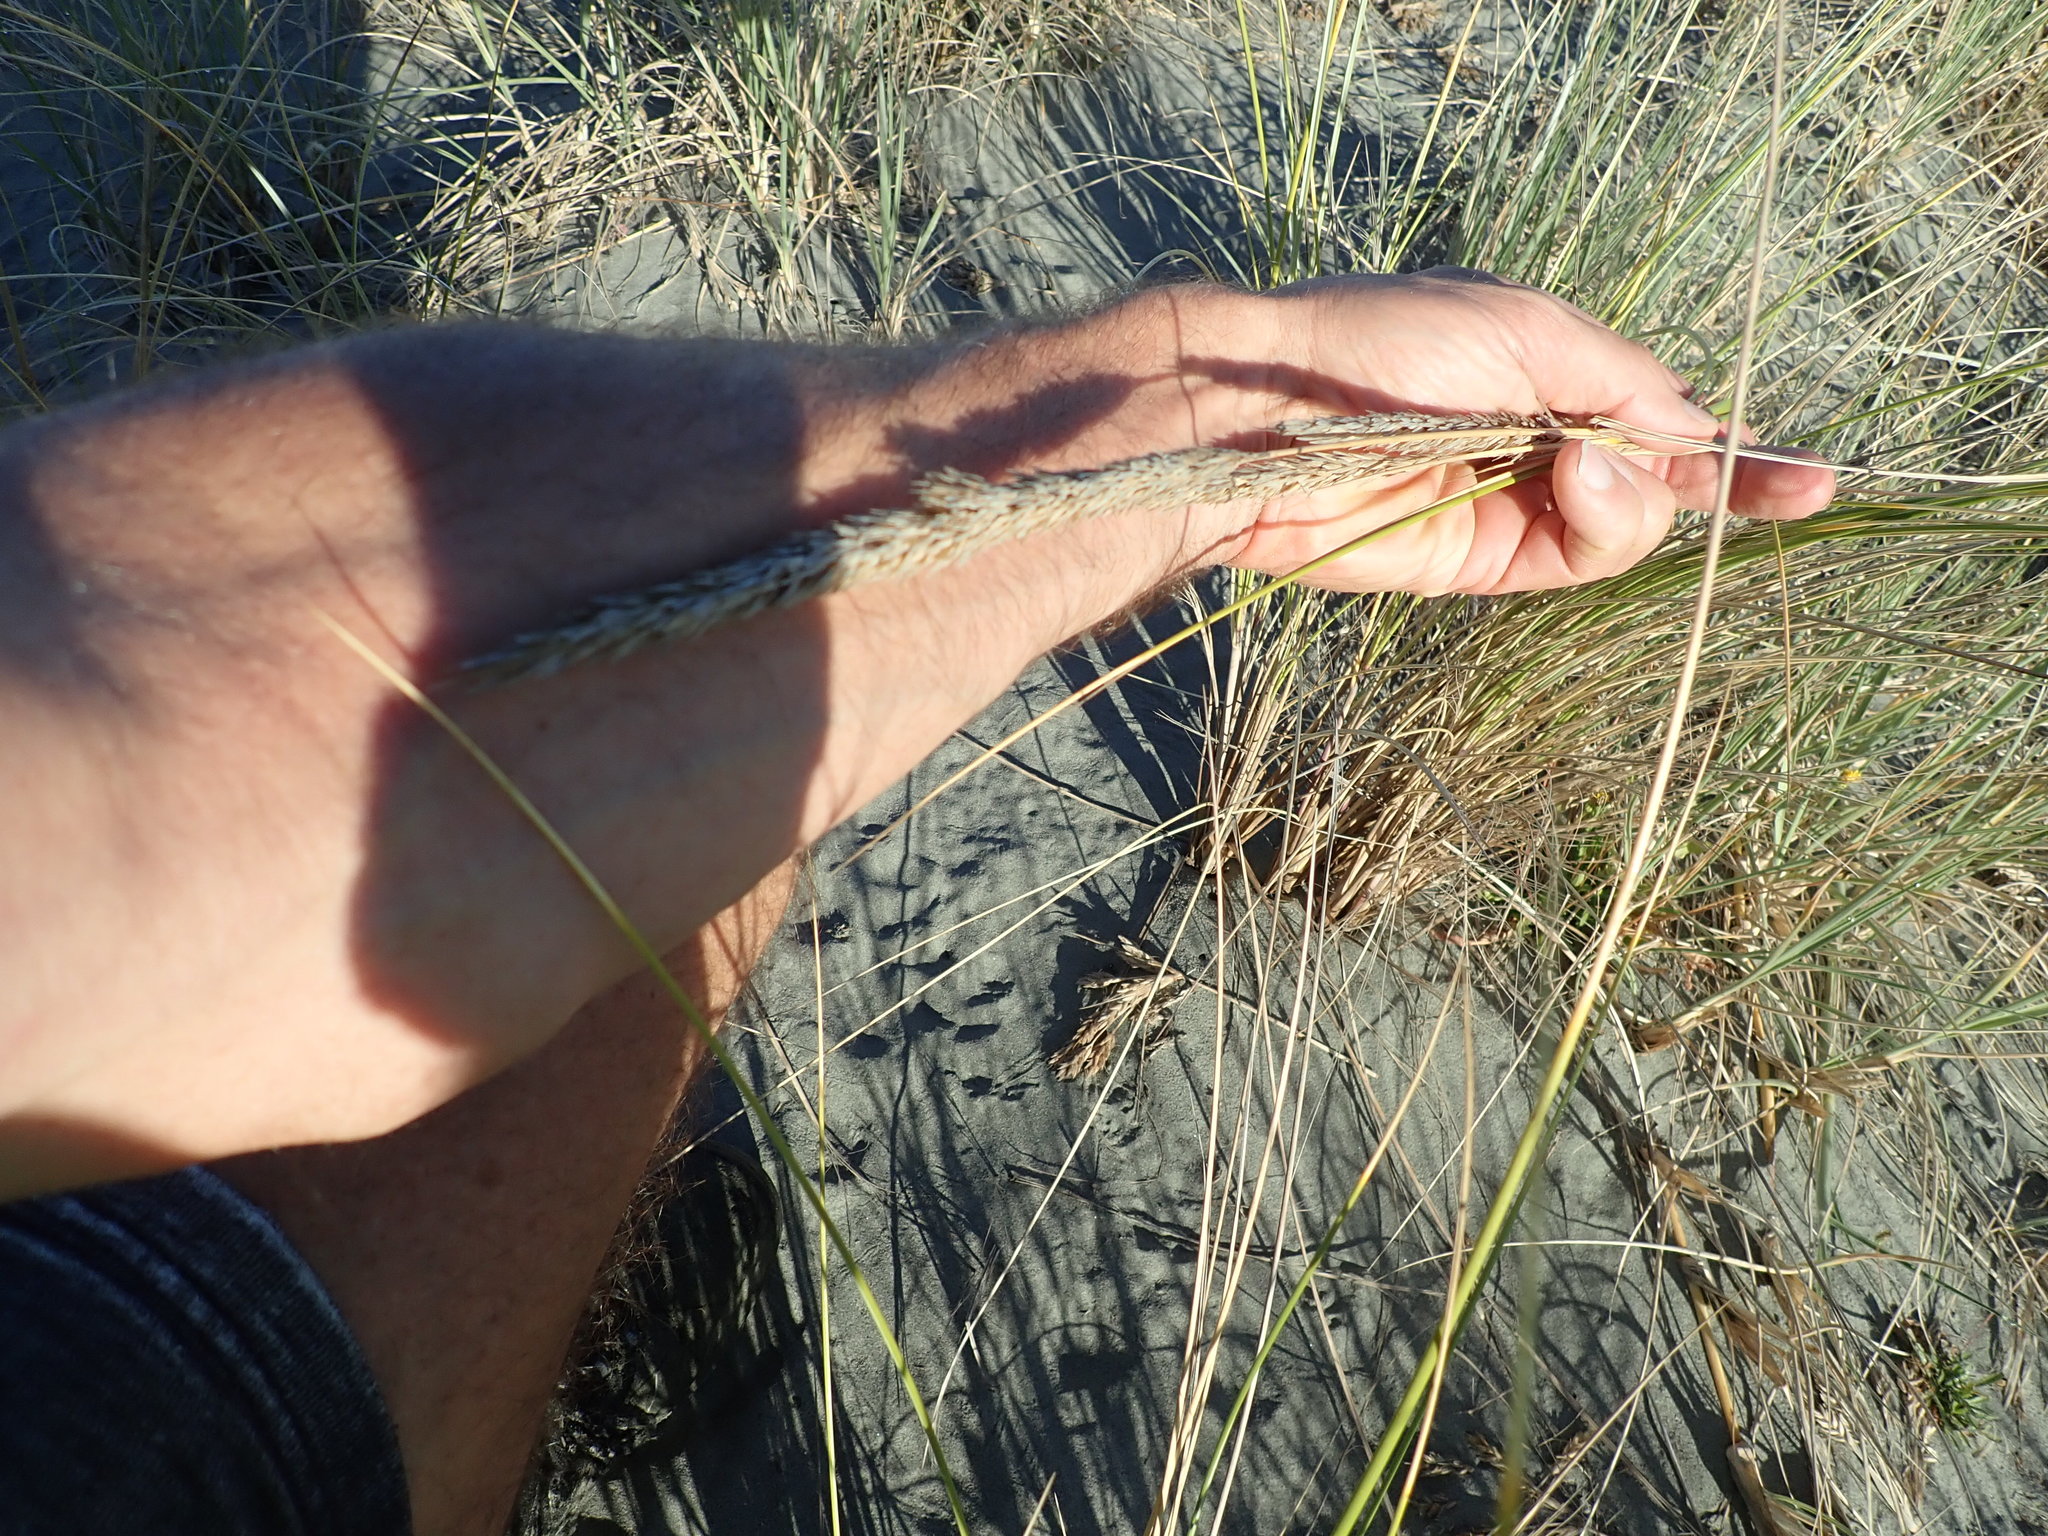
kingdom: Plantae
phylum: Tracheophyta
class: Liliopsida
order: Poales
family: Poaceae
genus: Calamagrostis
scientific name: Calamagrostis arenaria
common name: European beachgrass
